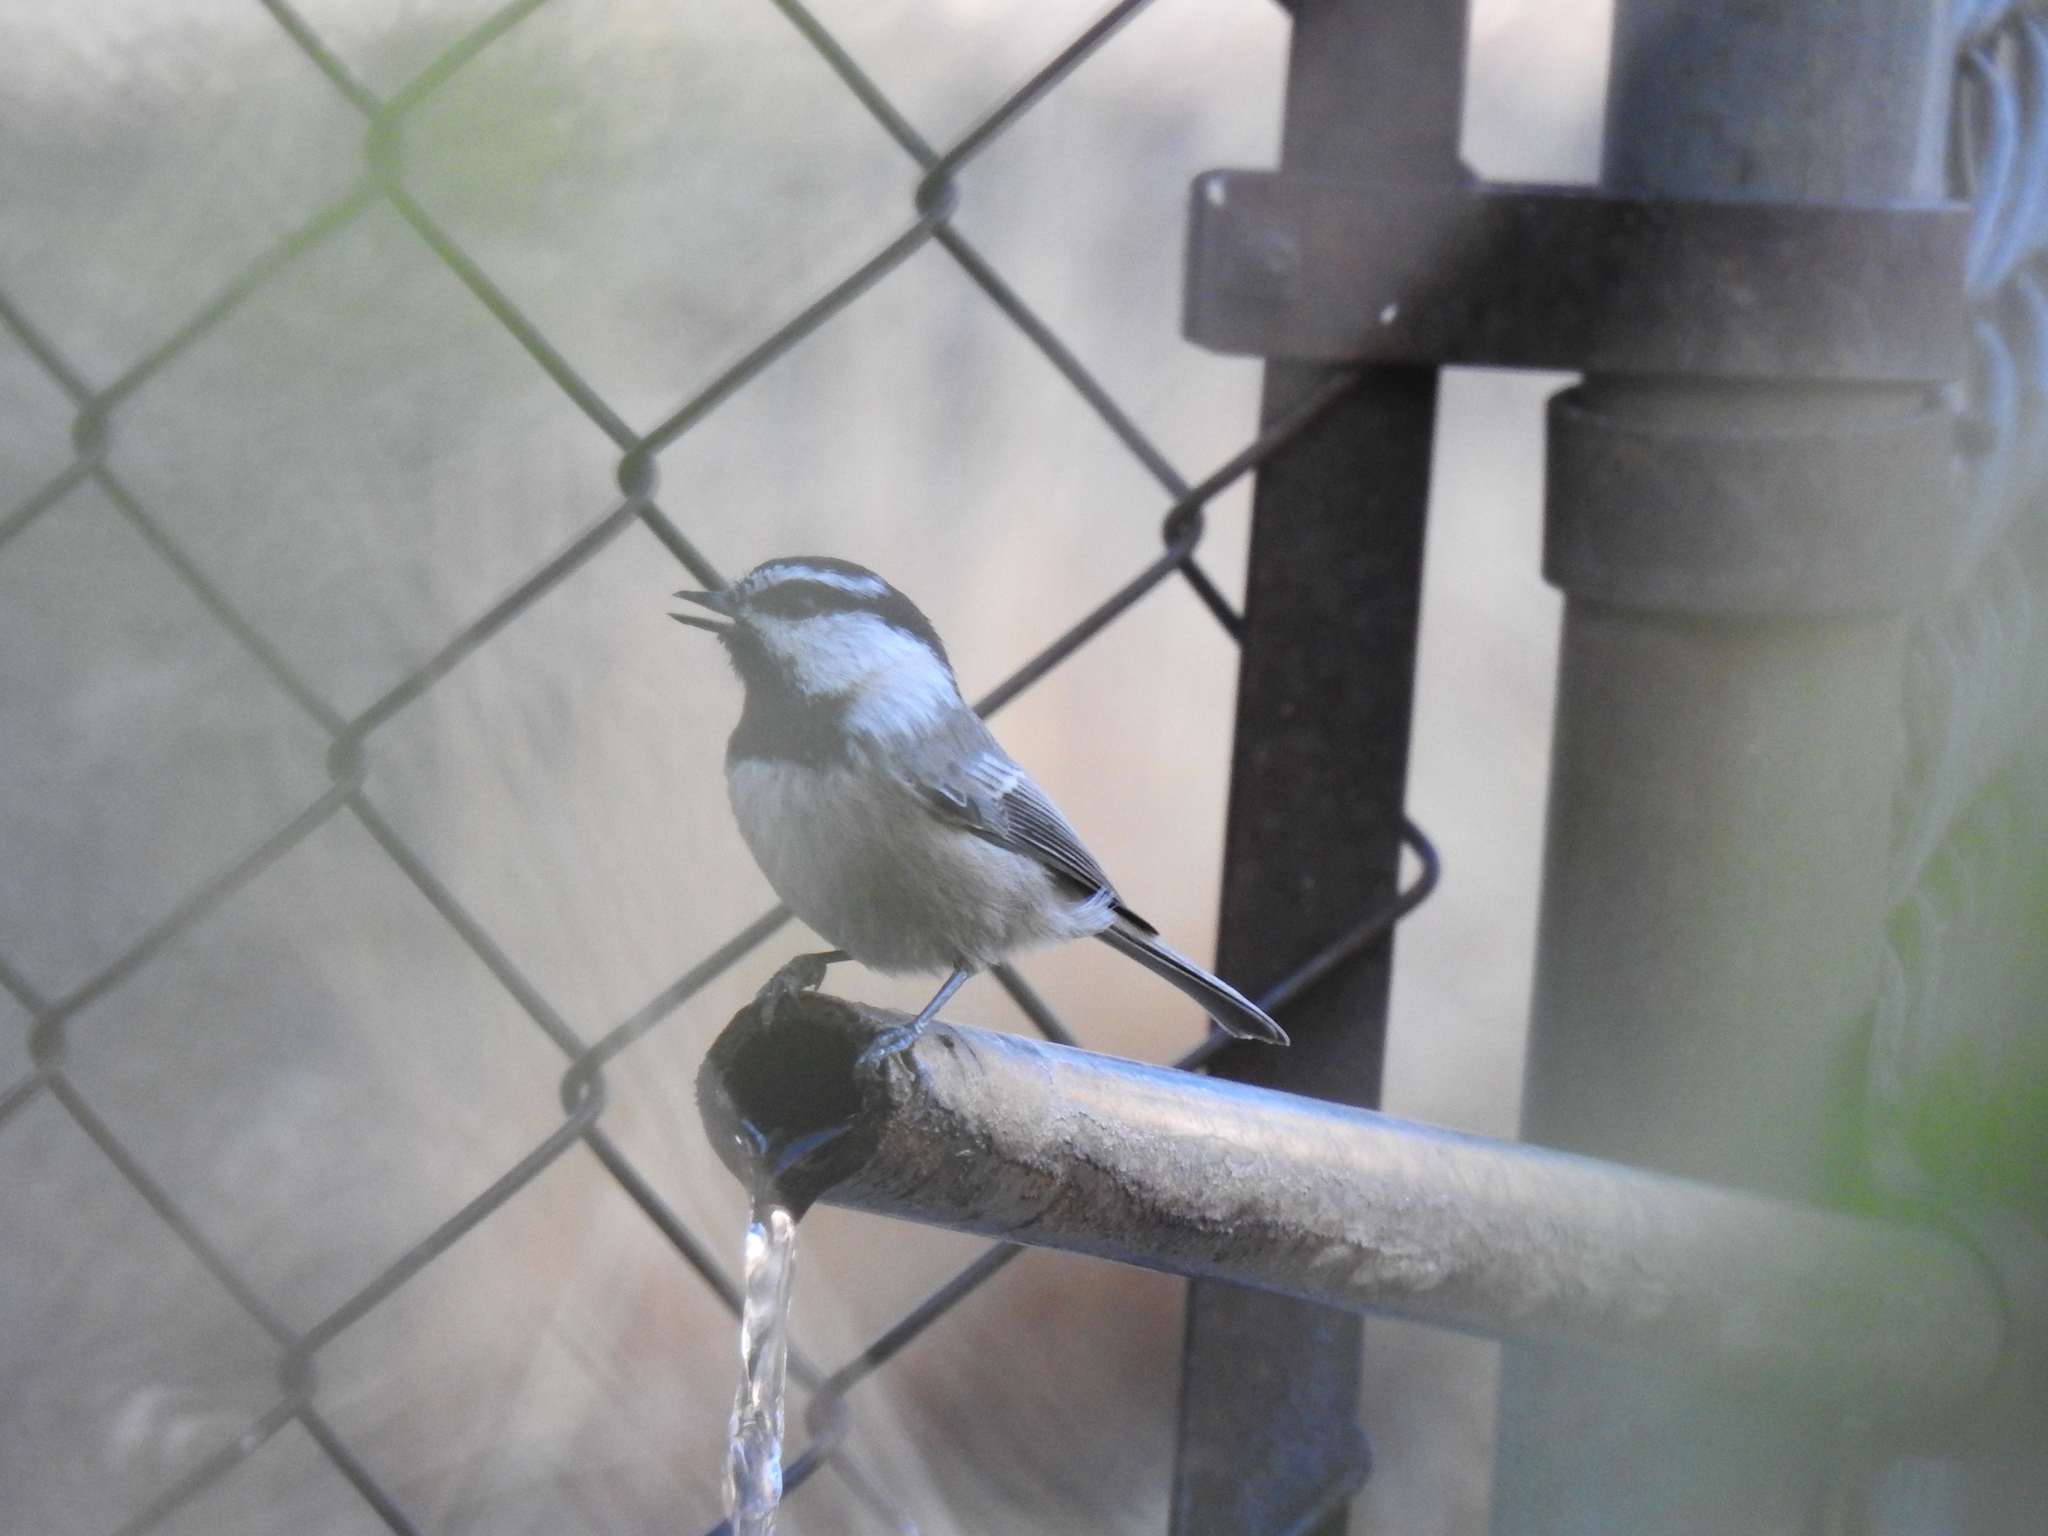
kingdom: Animalia
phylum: Chordata
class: Aves
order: Passeriformes
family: Paridae
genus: Poecile
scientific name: Poecile gambeli
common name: Mountain chickadee
